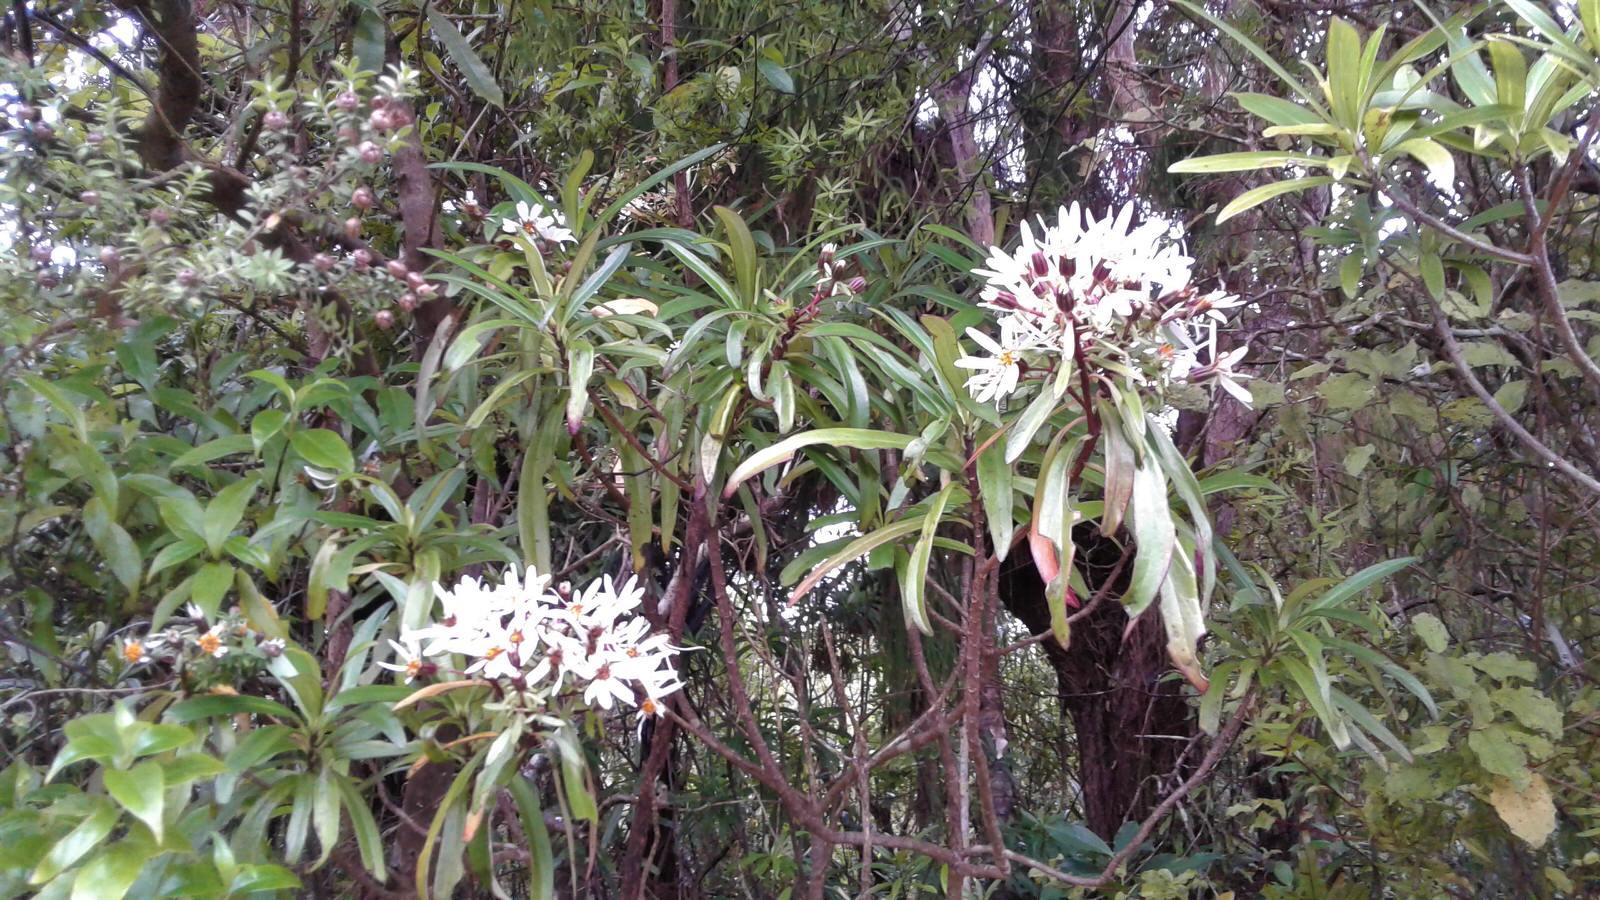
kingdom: Plantae
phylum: Tracheophyta
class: Magnoliopsida
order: Asterales
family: Asteraceae
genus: Brachyglottis
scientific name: Brachyglottis kirkii
